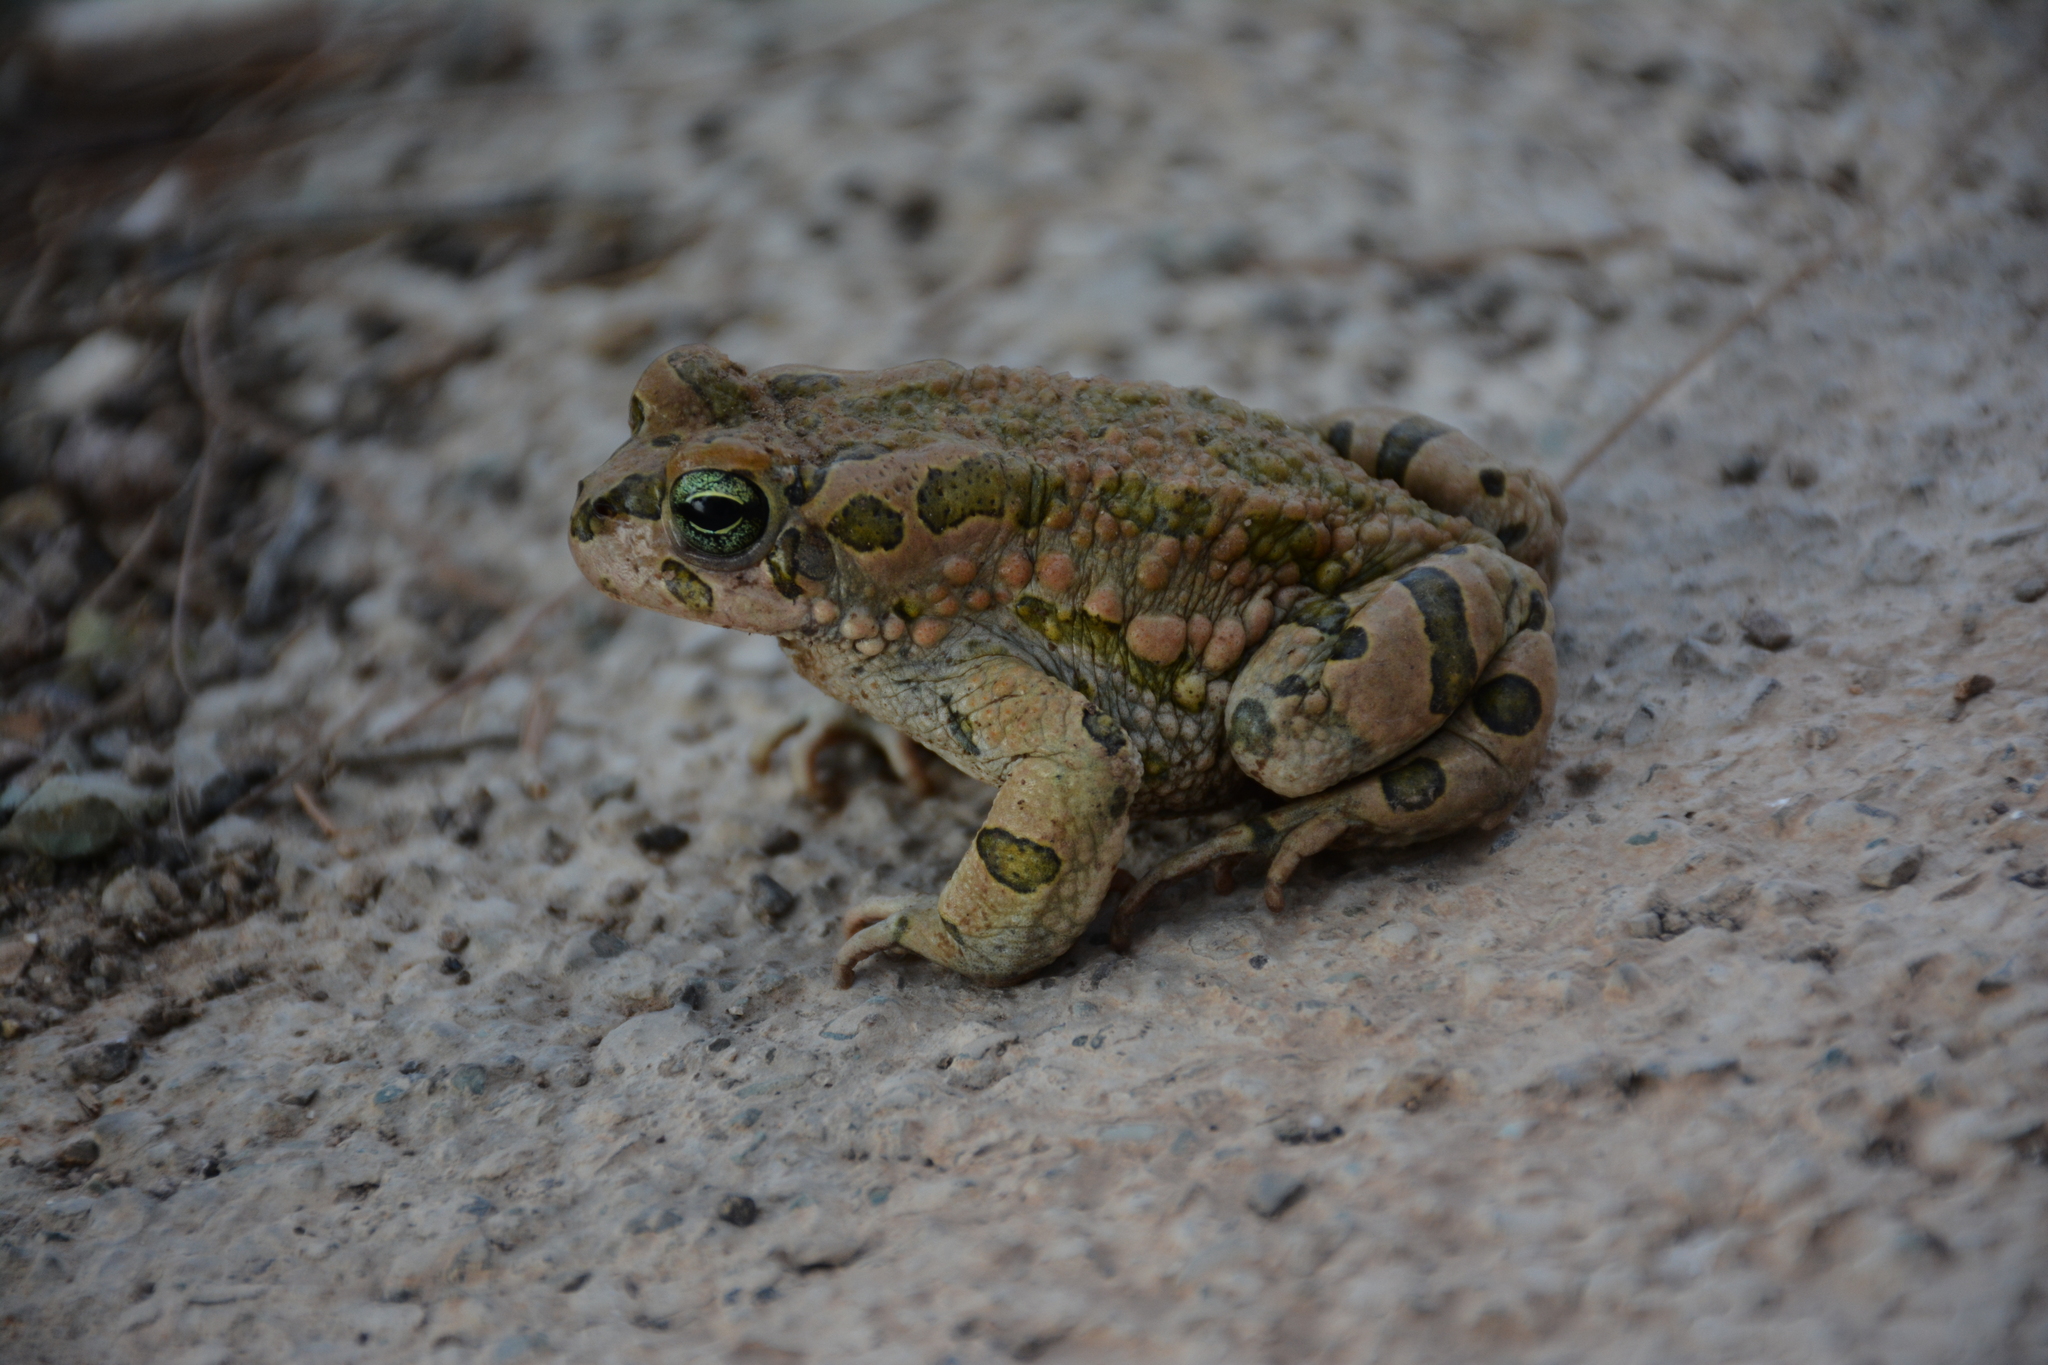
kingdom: Animalia
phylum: Chordata
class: Amphibia
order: Anura
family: Bufonidae
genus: Bufotes
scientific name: Bufotes viridis
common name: European green toad
